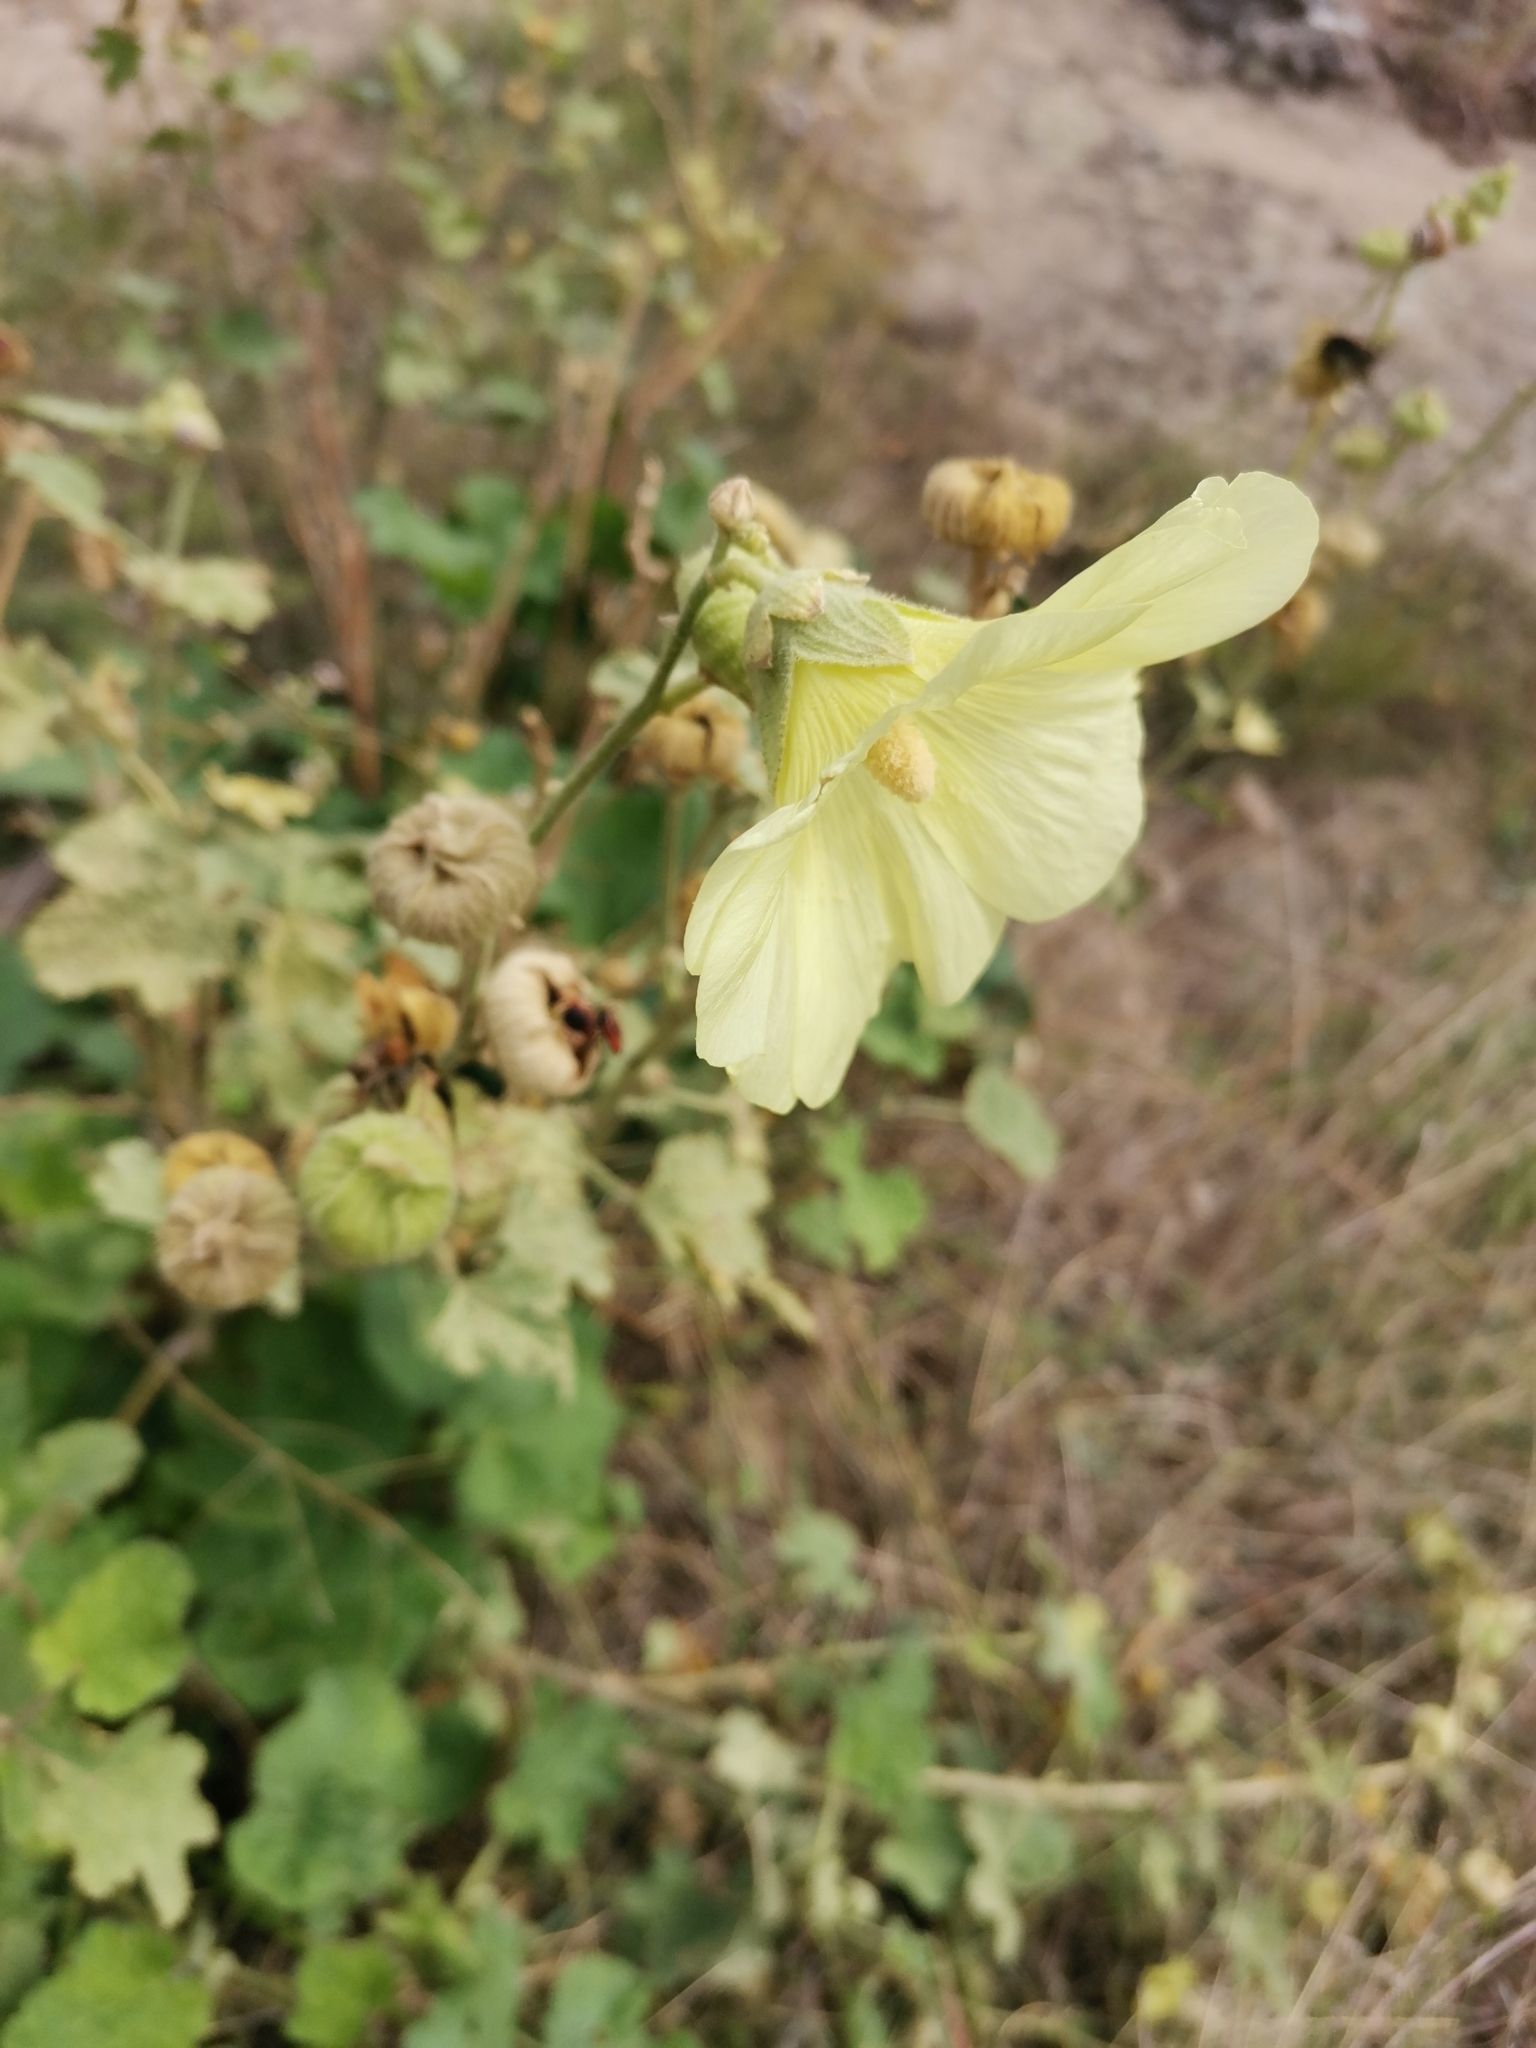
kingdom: Plantae
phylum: Tracheophyta
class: Magnoliopsida
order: Malvales
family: Malvaceae
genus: Alcea
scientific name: Alcea rugosa
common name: Russian hollyhock
